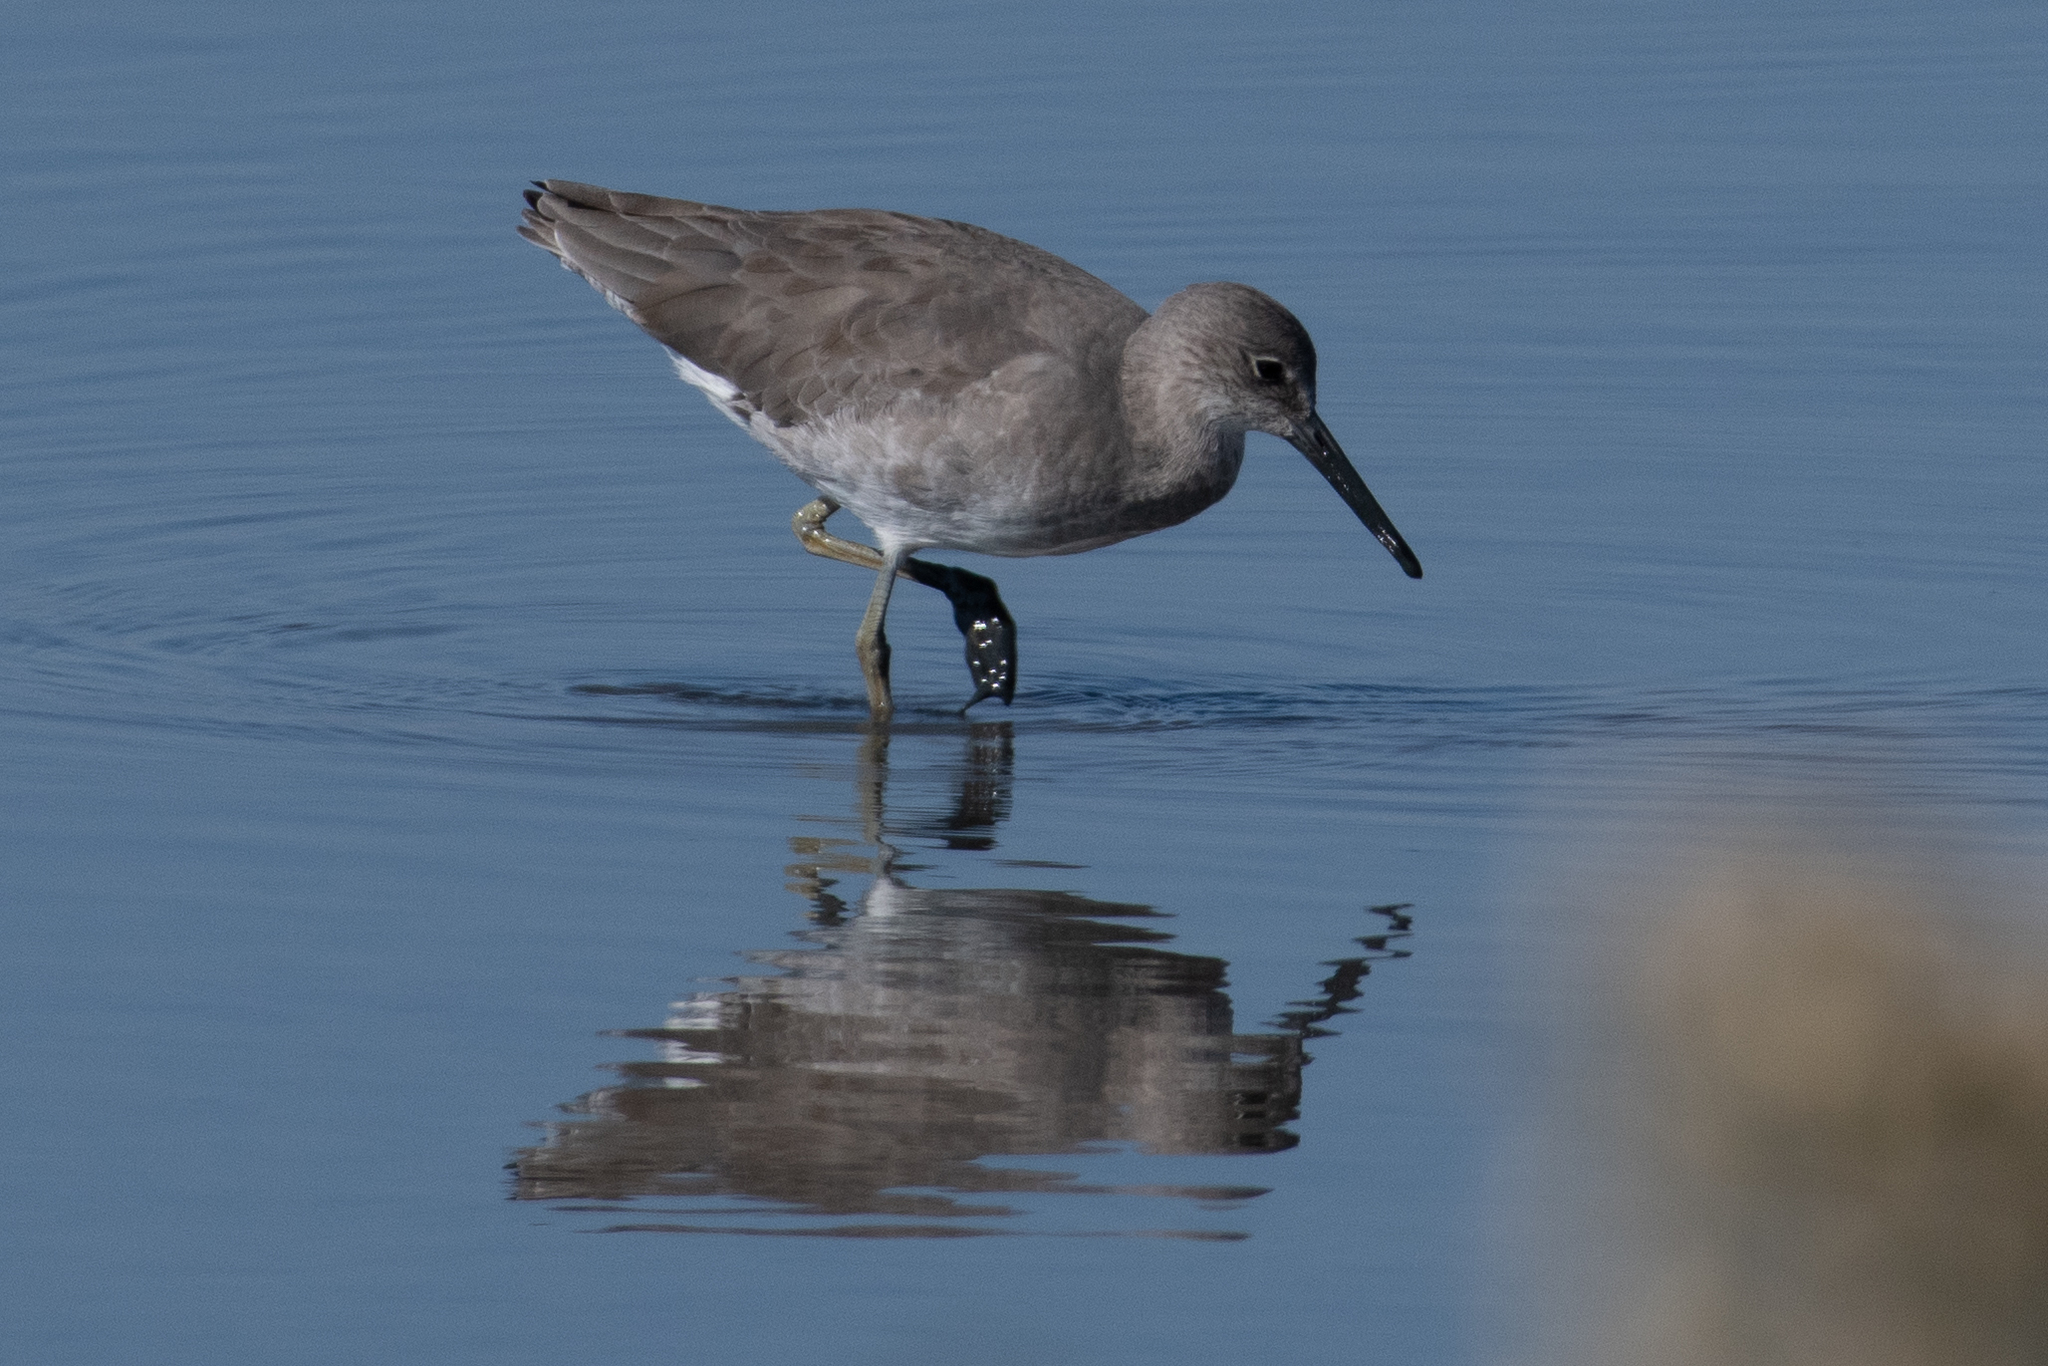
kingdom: Animalia
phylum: Chordata
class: Aves
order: Charadriiformes
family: Scolopacidae
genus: Tringa
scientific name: Tringa semipalmata
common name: Willet
